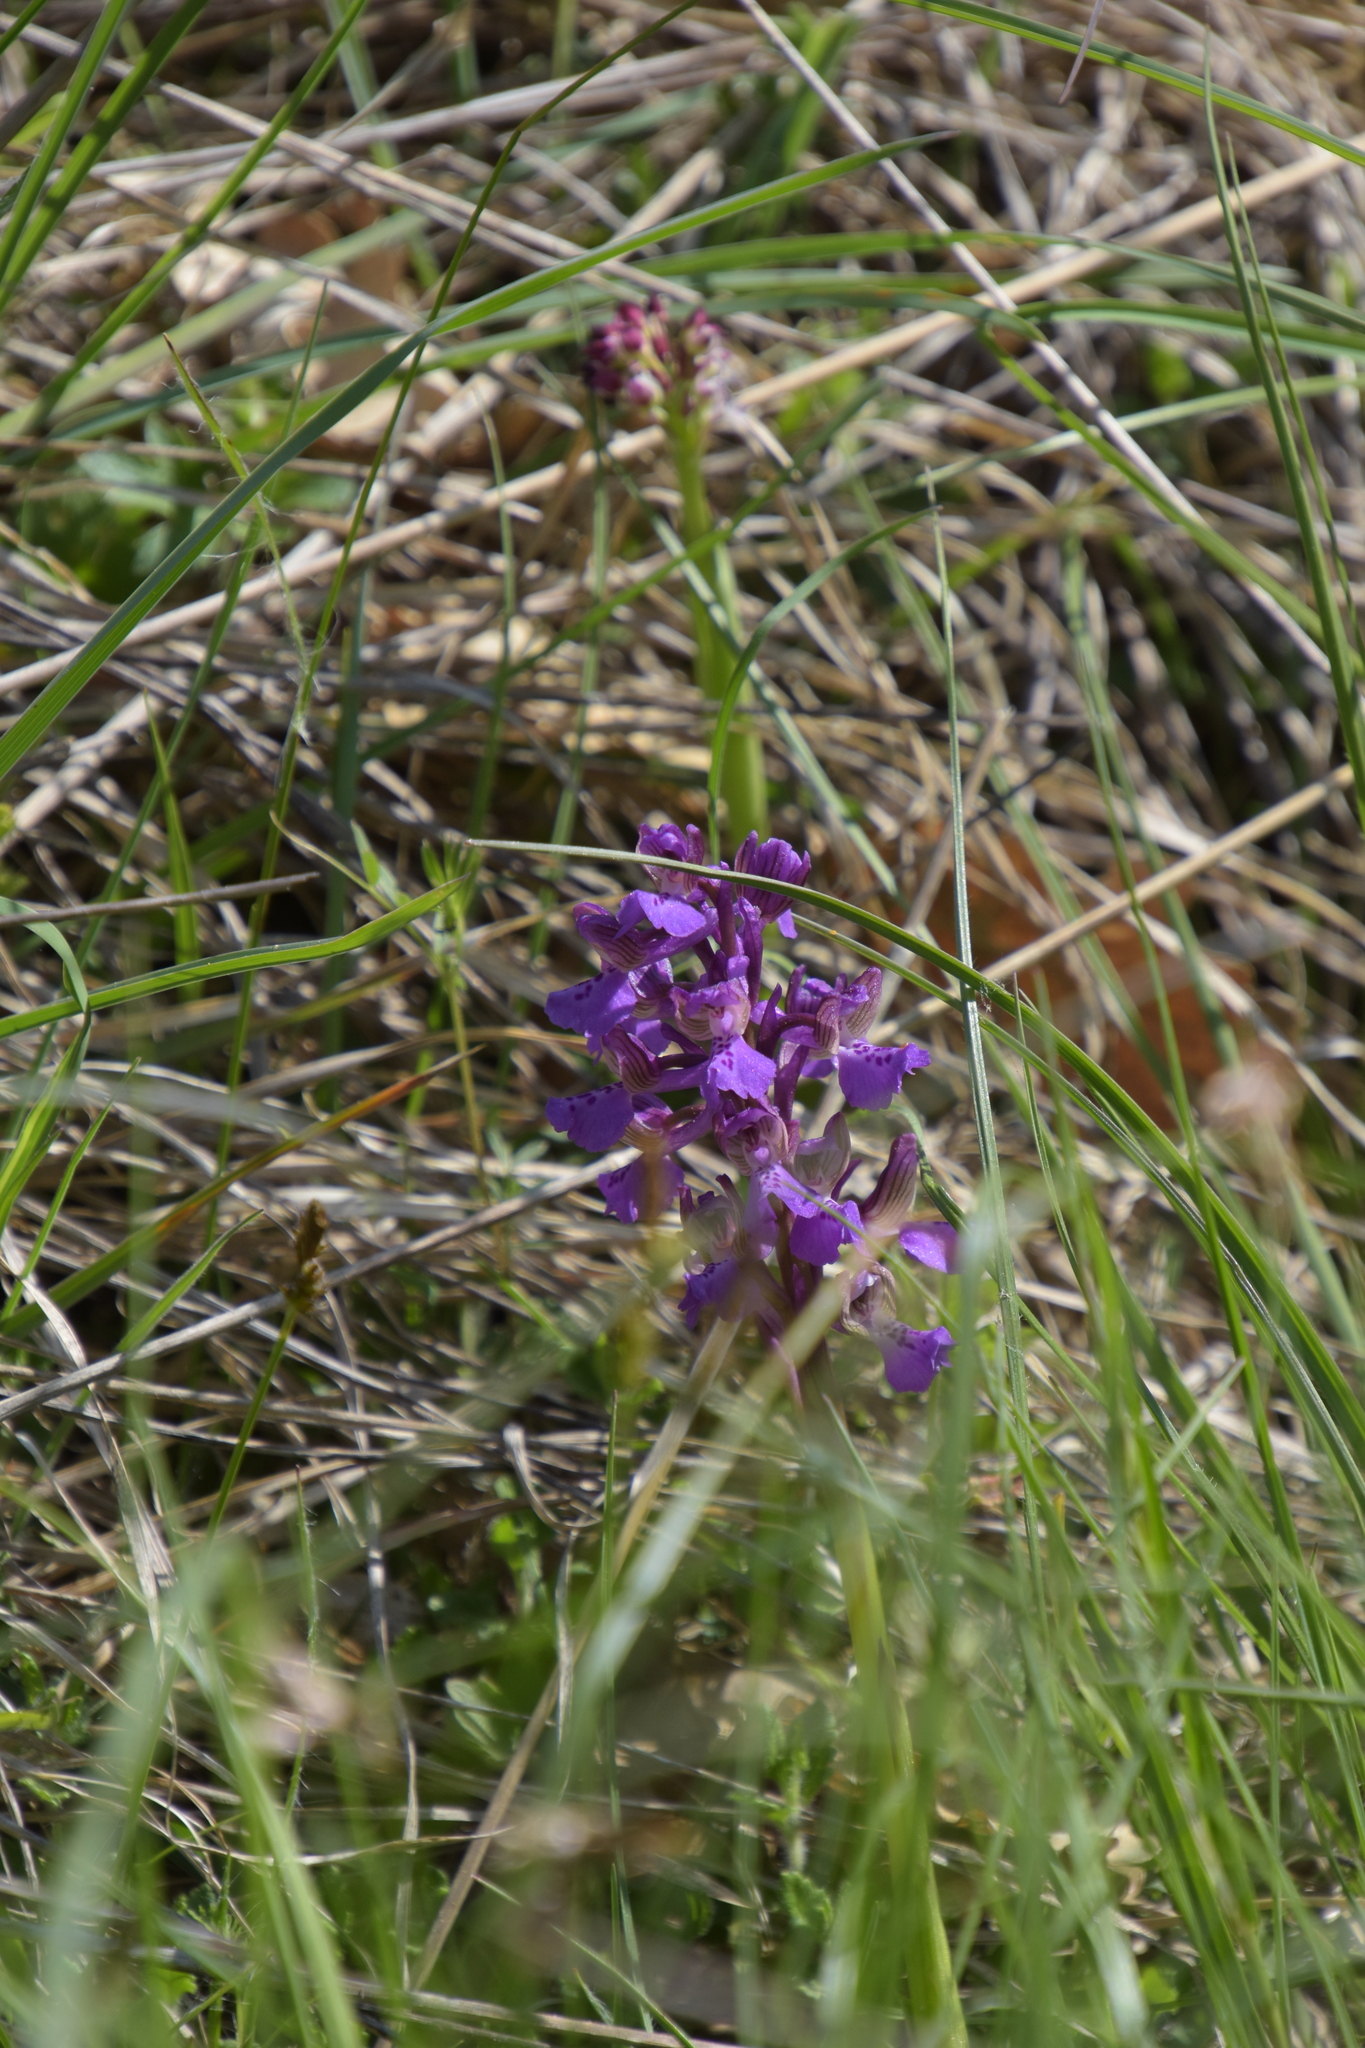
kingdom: Plantae
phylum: Tracheophyta
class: Liliopsida
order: Asparagales
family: Orchidaceae
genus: Anacamptis
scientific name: Anacamptis morio
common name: Green-winged orchid
